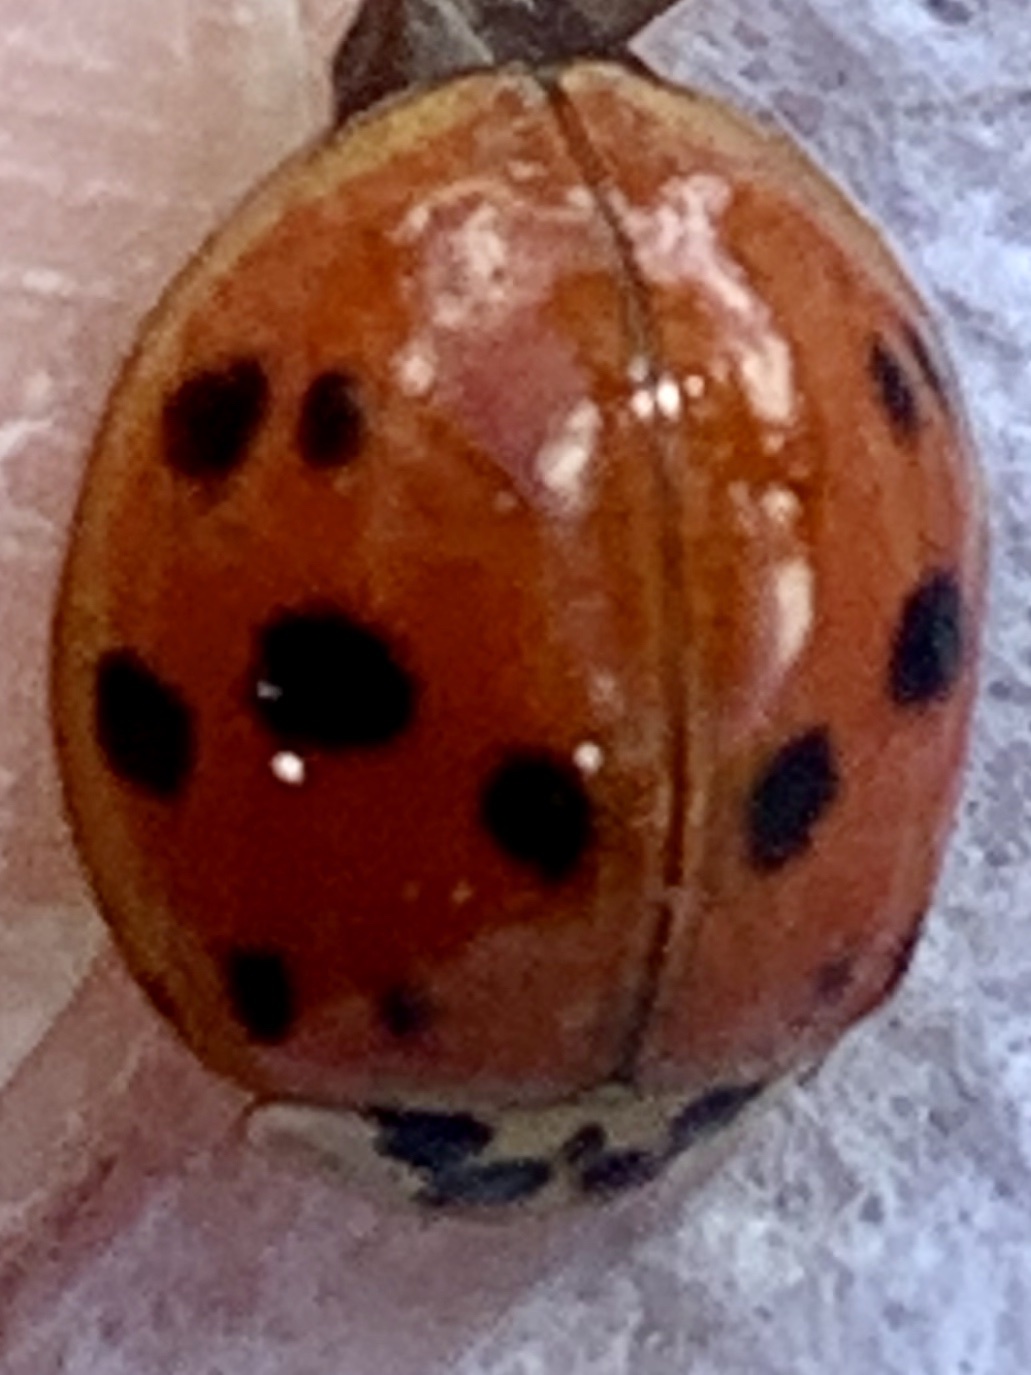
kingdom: Animalia
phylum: Arthropoda
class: Insecta
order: Coleoptera
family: Coccinellidae
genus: Harmonia
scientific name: Harmonia axyridis
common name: Harlequin ladybird
